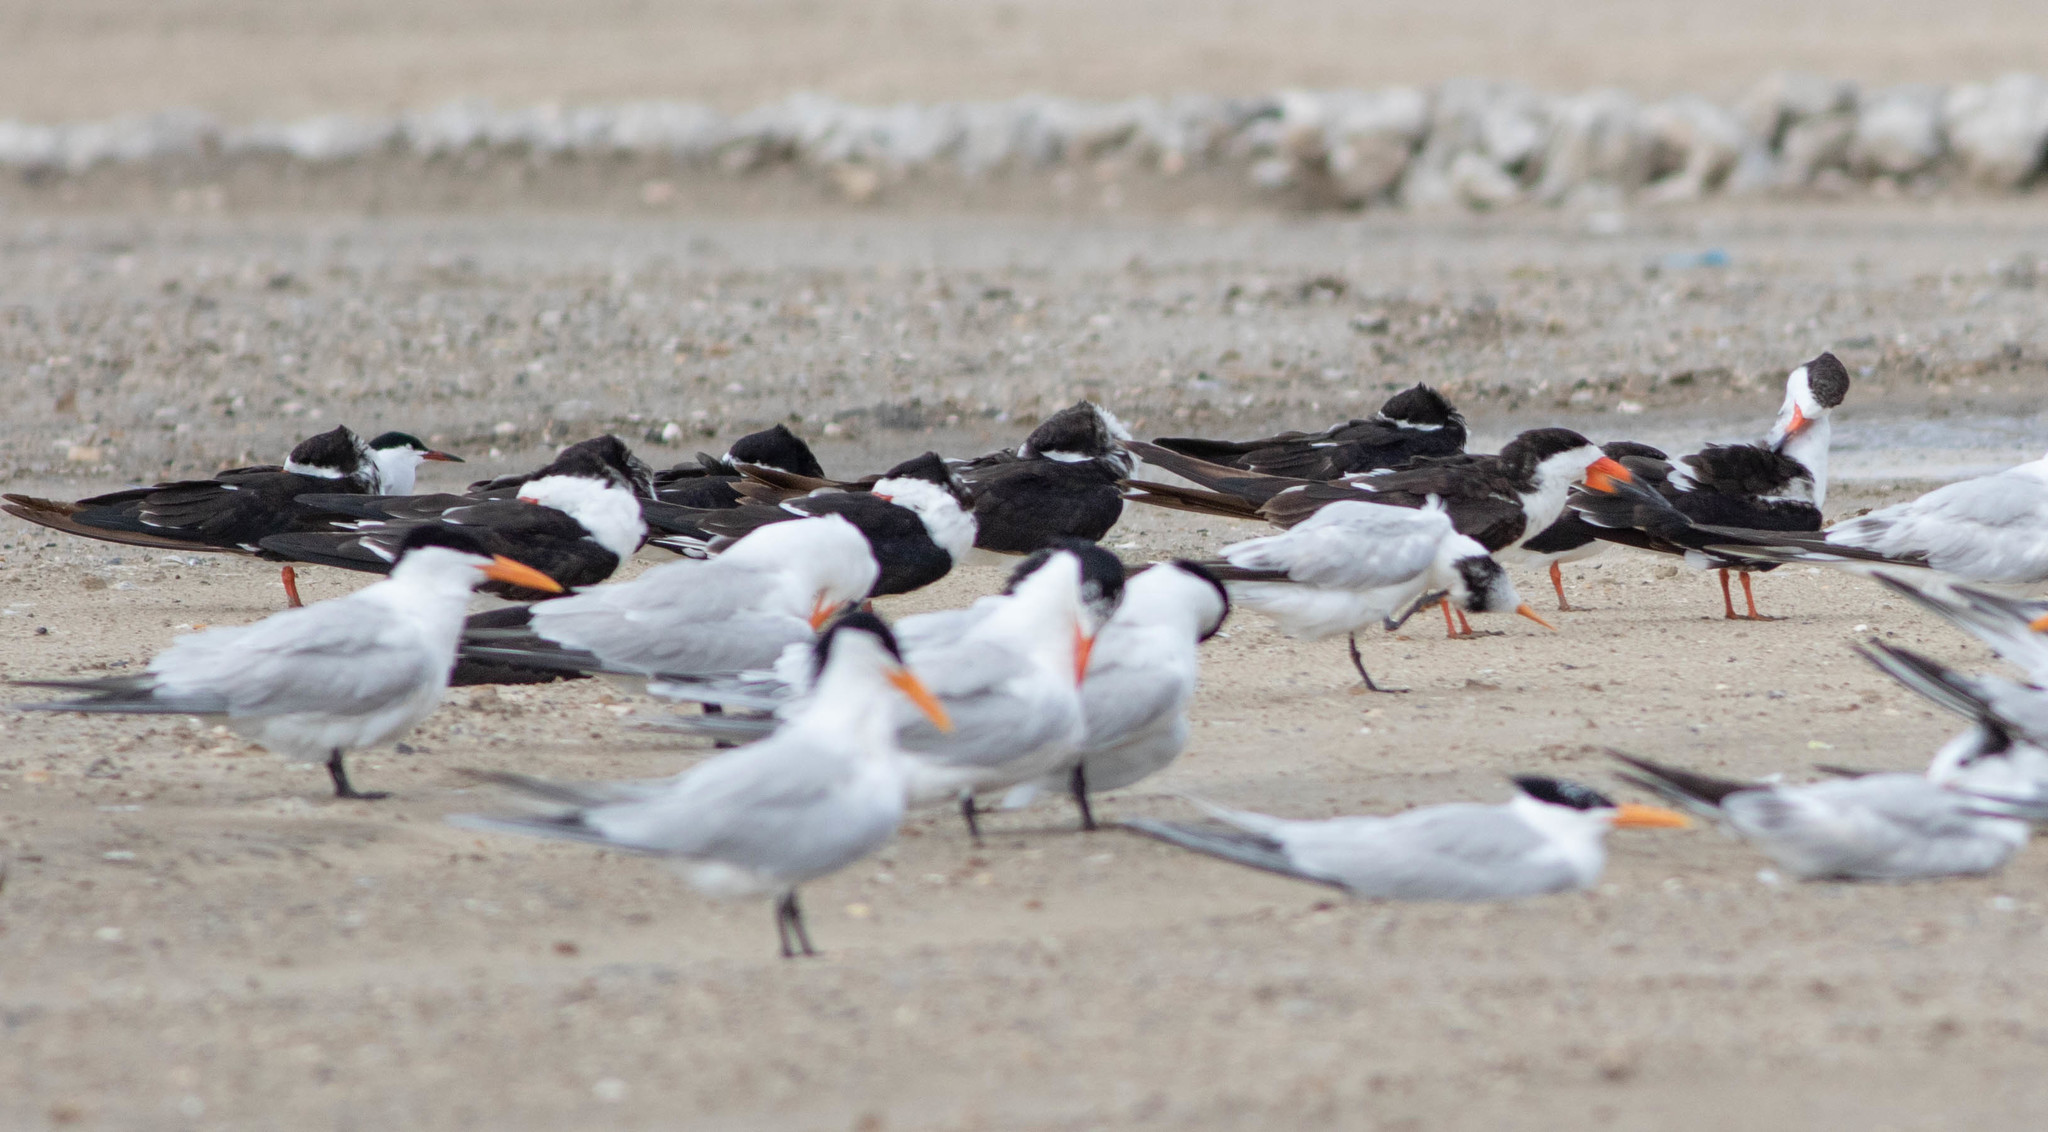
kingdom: Animalia
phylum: Chordata
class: Aves
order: Charadriiformes
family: Laridae
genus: Rynchops
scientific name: Rynchops niger
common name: Black skimmer
